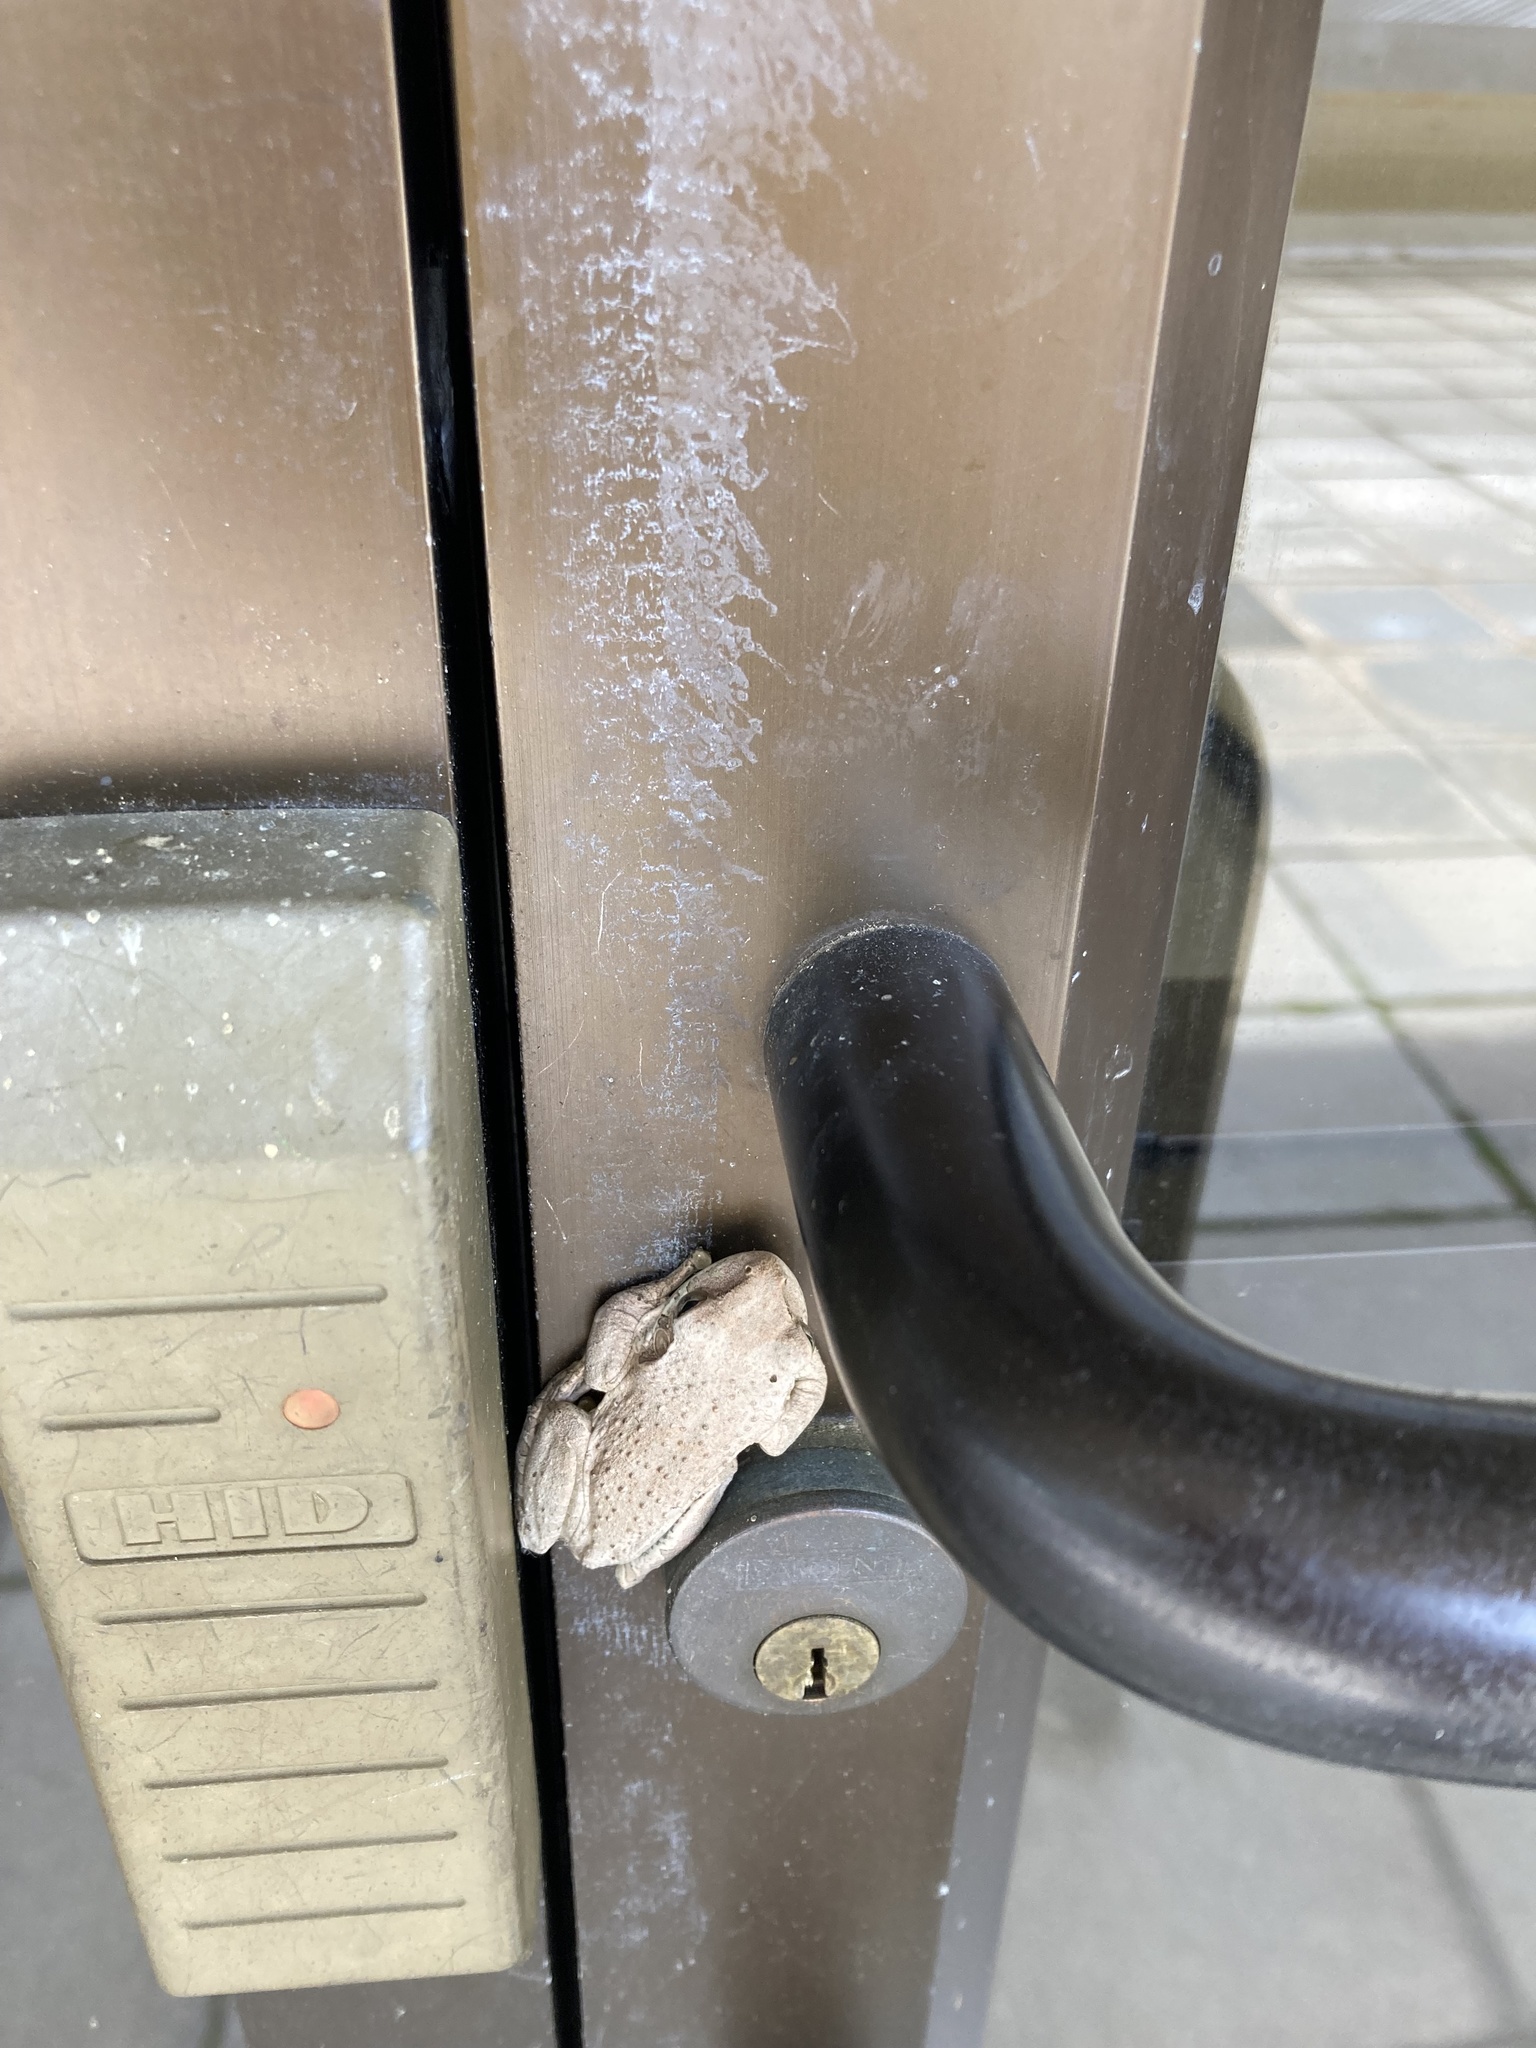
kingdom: Animalia
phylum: Chordata
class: Amphibia
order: Anura
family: Hylidae
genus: Osteopilus
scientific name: Osteopilus septentrionalis
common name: Cuban treefrog
